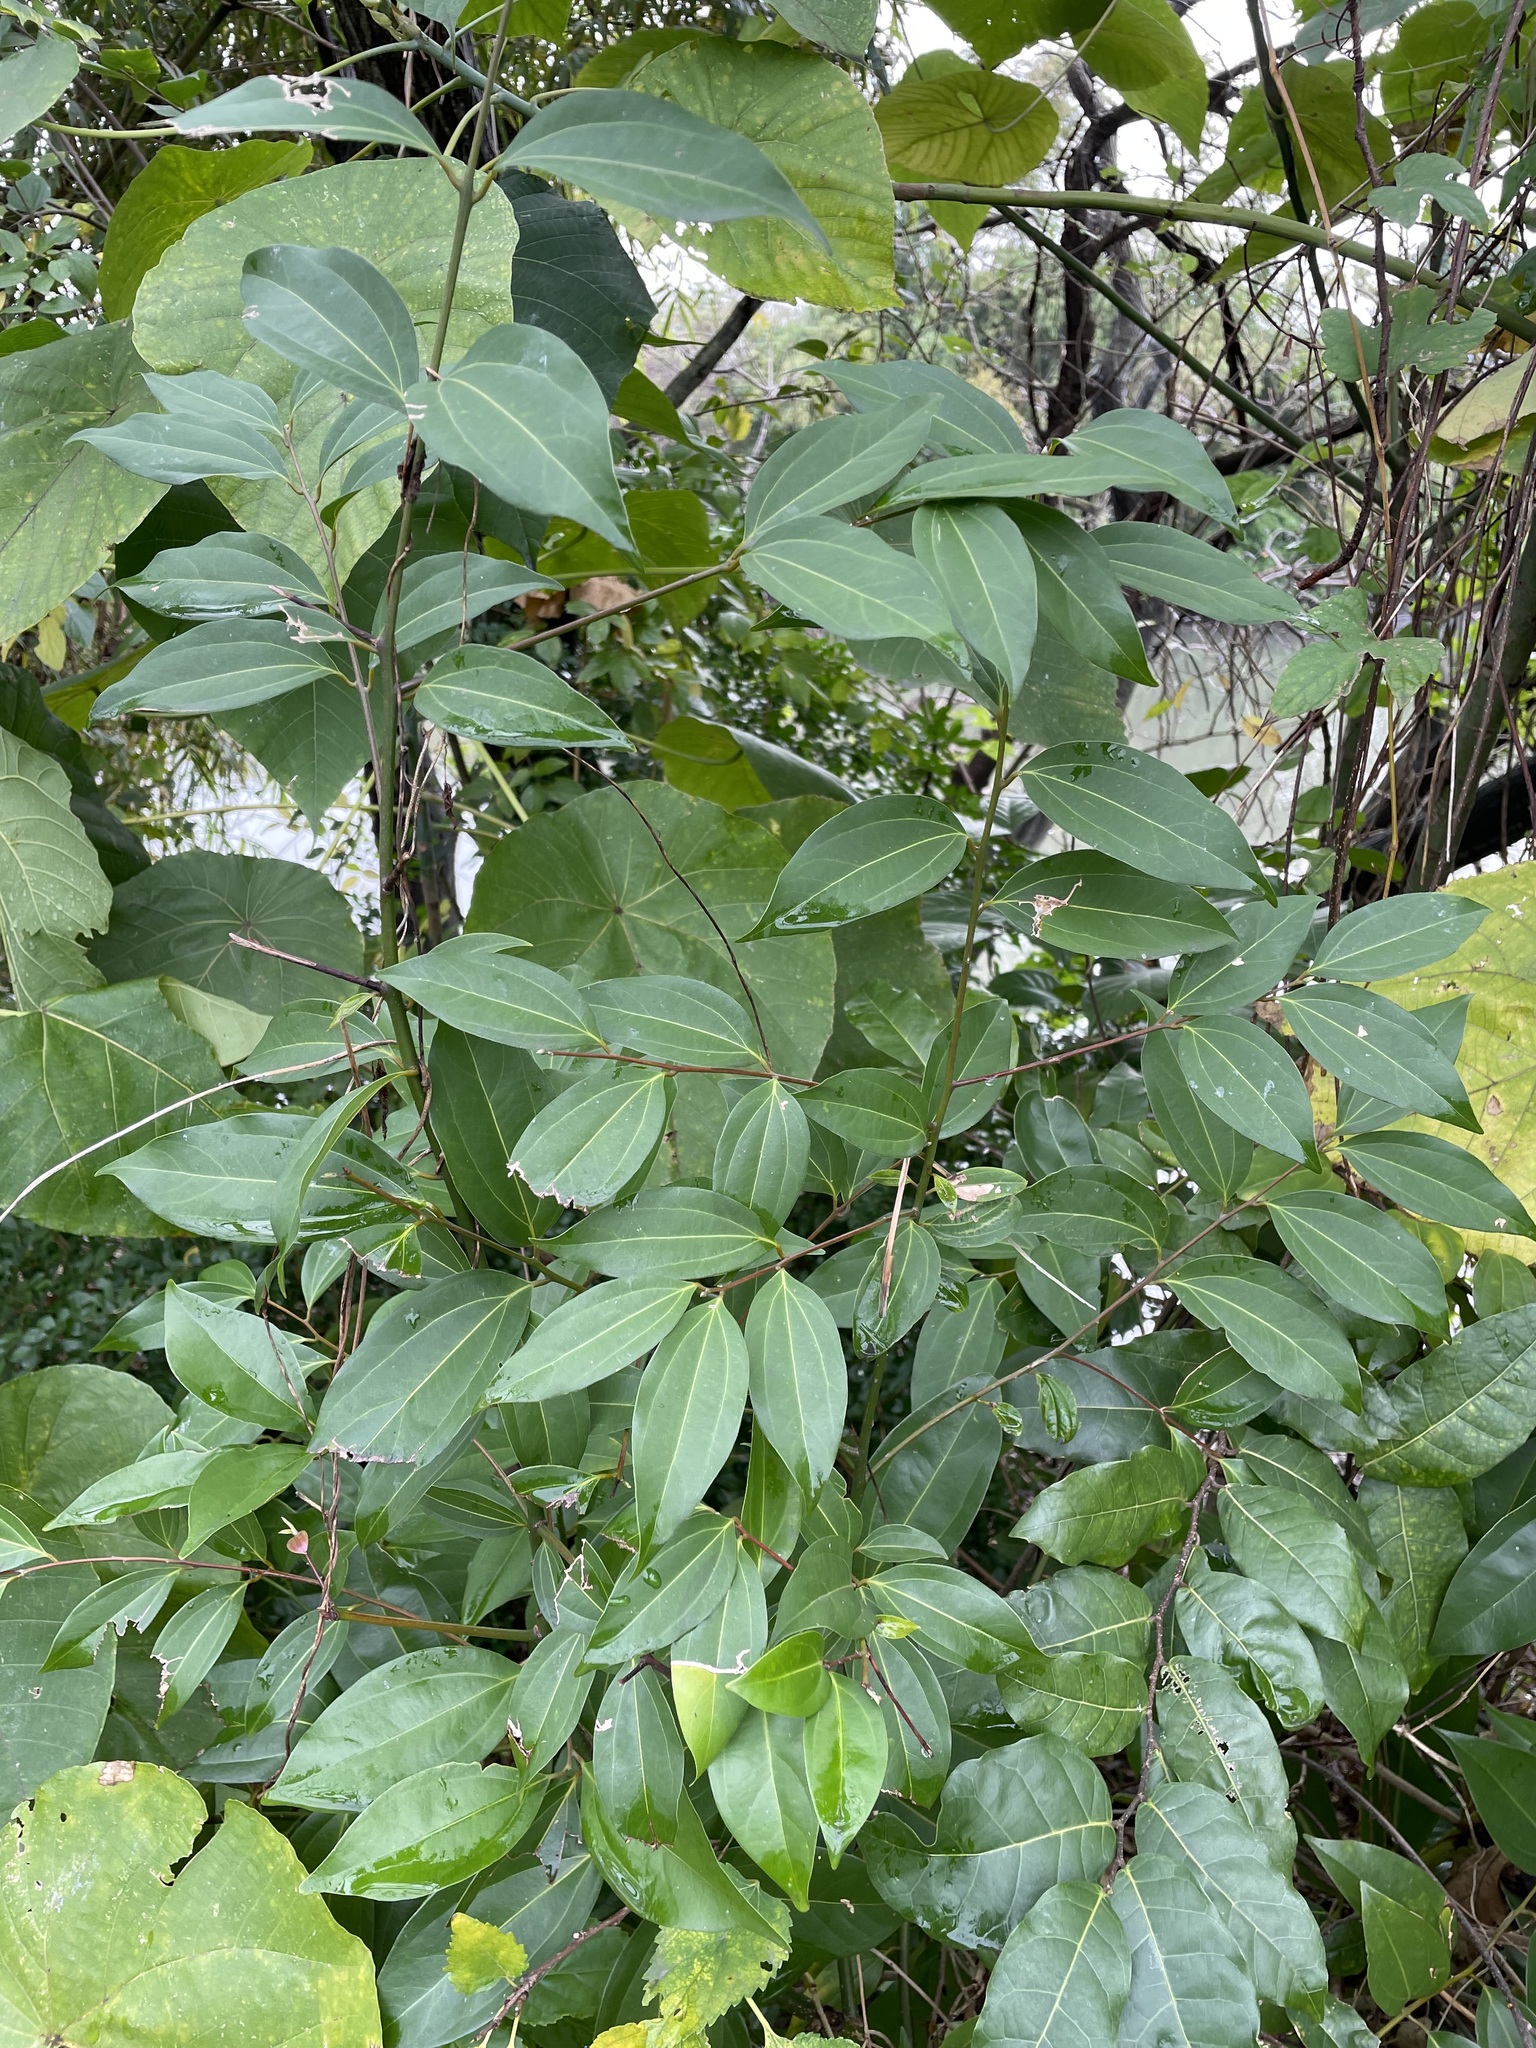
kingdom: Plantae
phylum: Tracheophyta
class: Magnoliopsida
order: Laurales
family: Lauraceae
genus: Cinnamomum
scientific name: Cinnamomum burmanni
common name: Padang cassia
